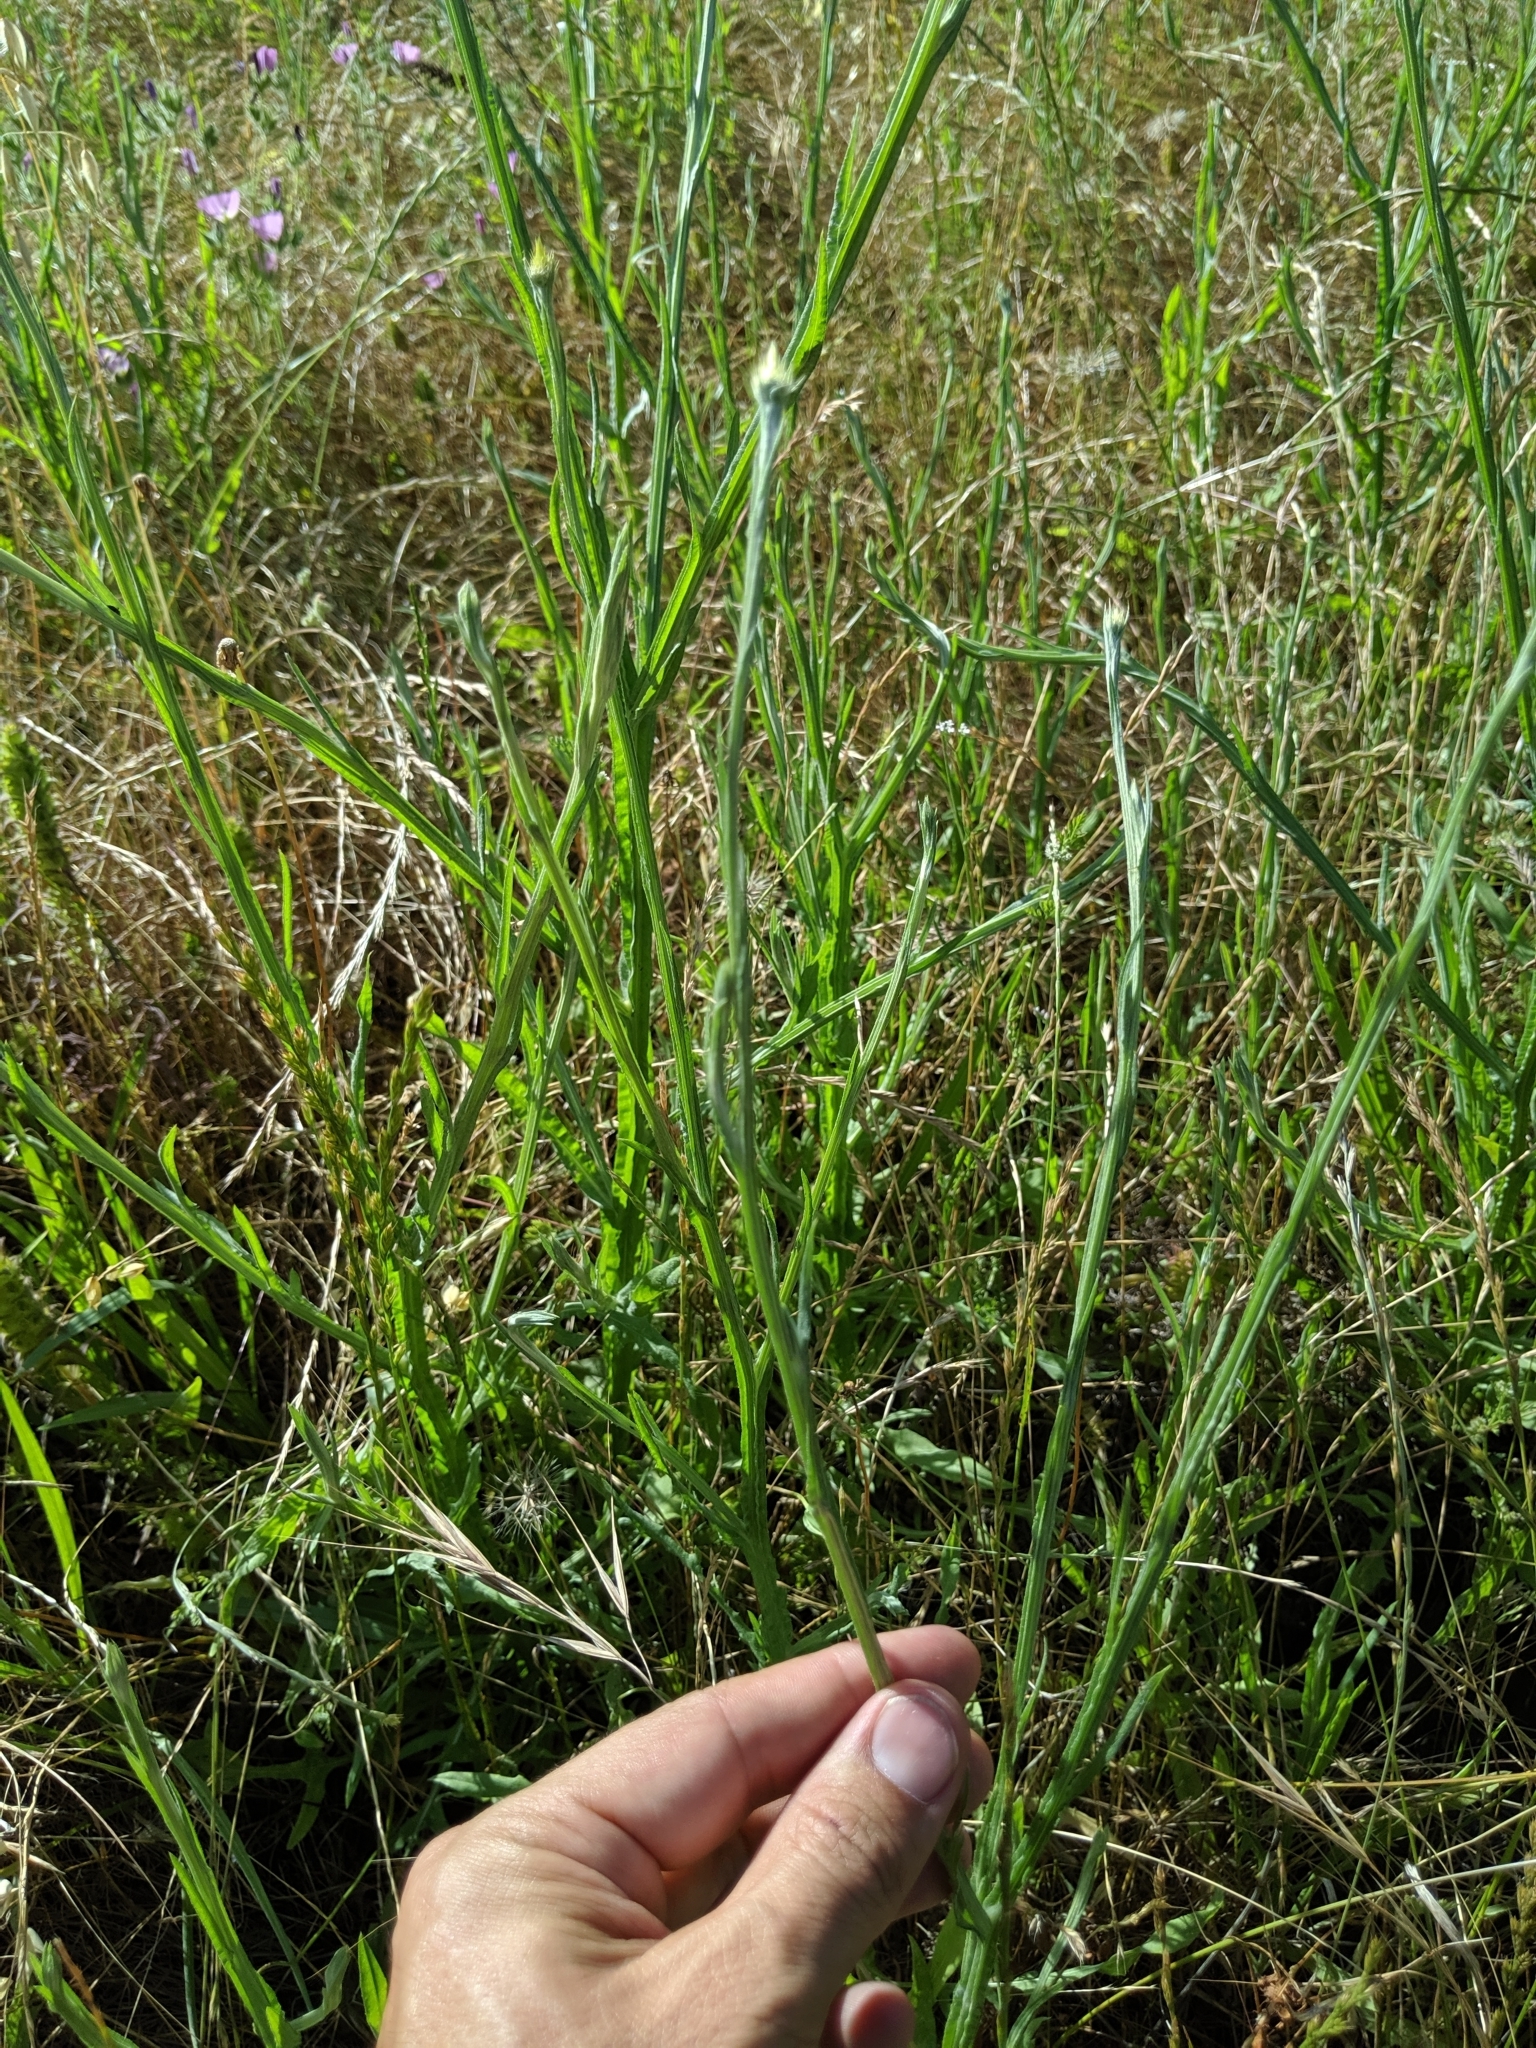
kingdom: Plantae
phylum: Tracheophyta
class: Magnoliopsida
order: Asterales
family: Asteraceae
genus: Centaurea
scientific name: Centaurea solstitialis
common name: Yellow star-thistle
